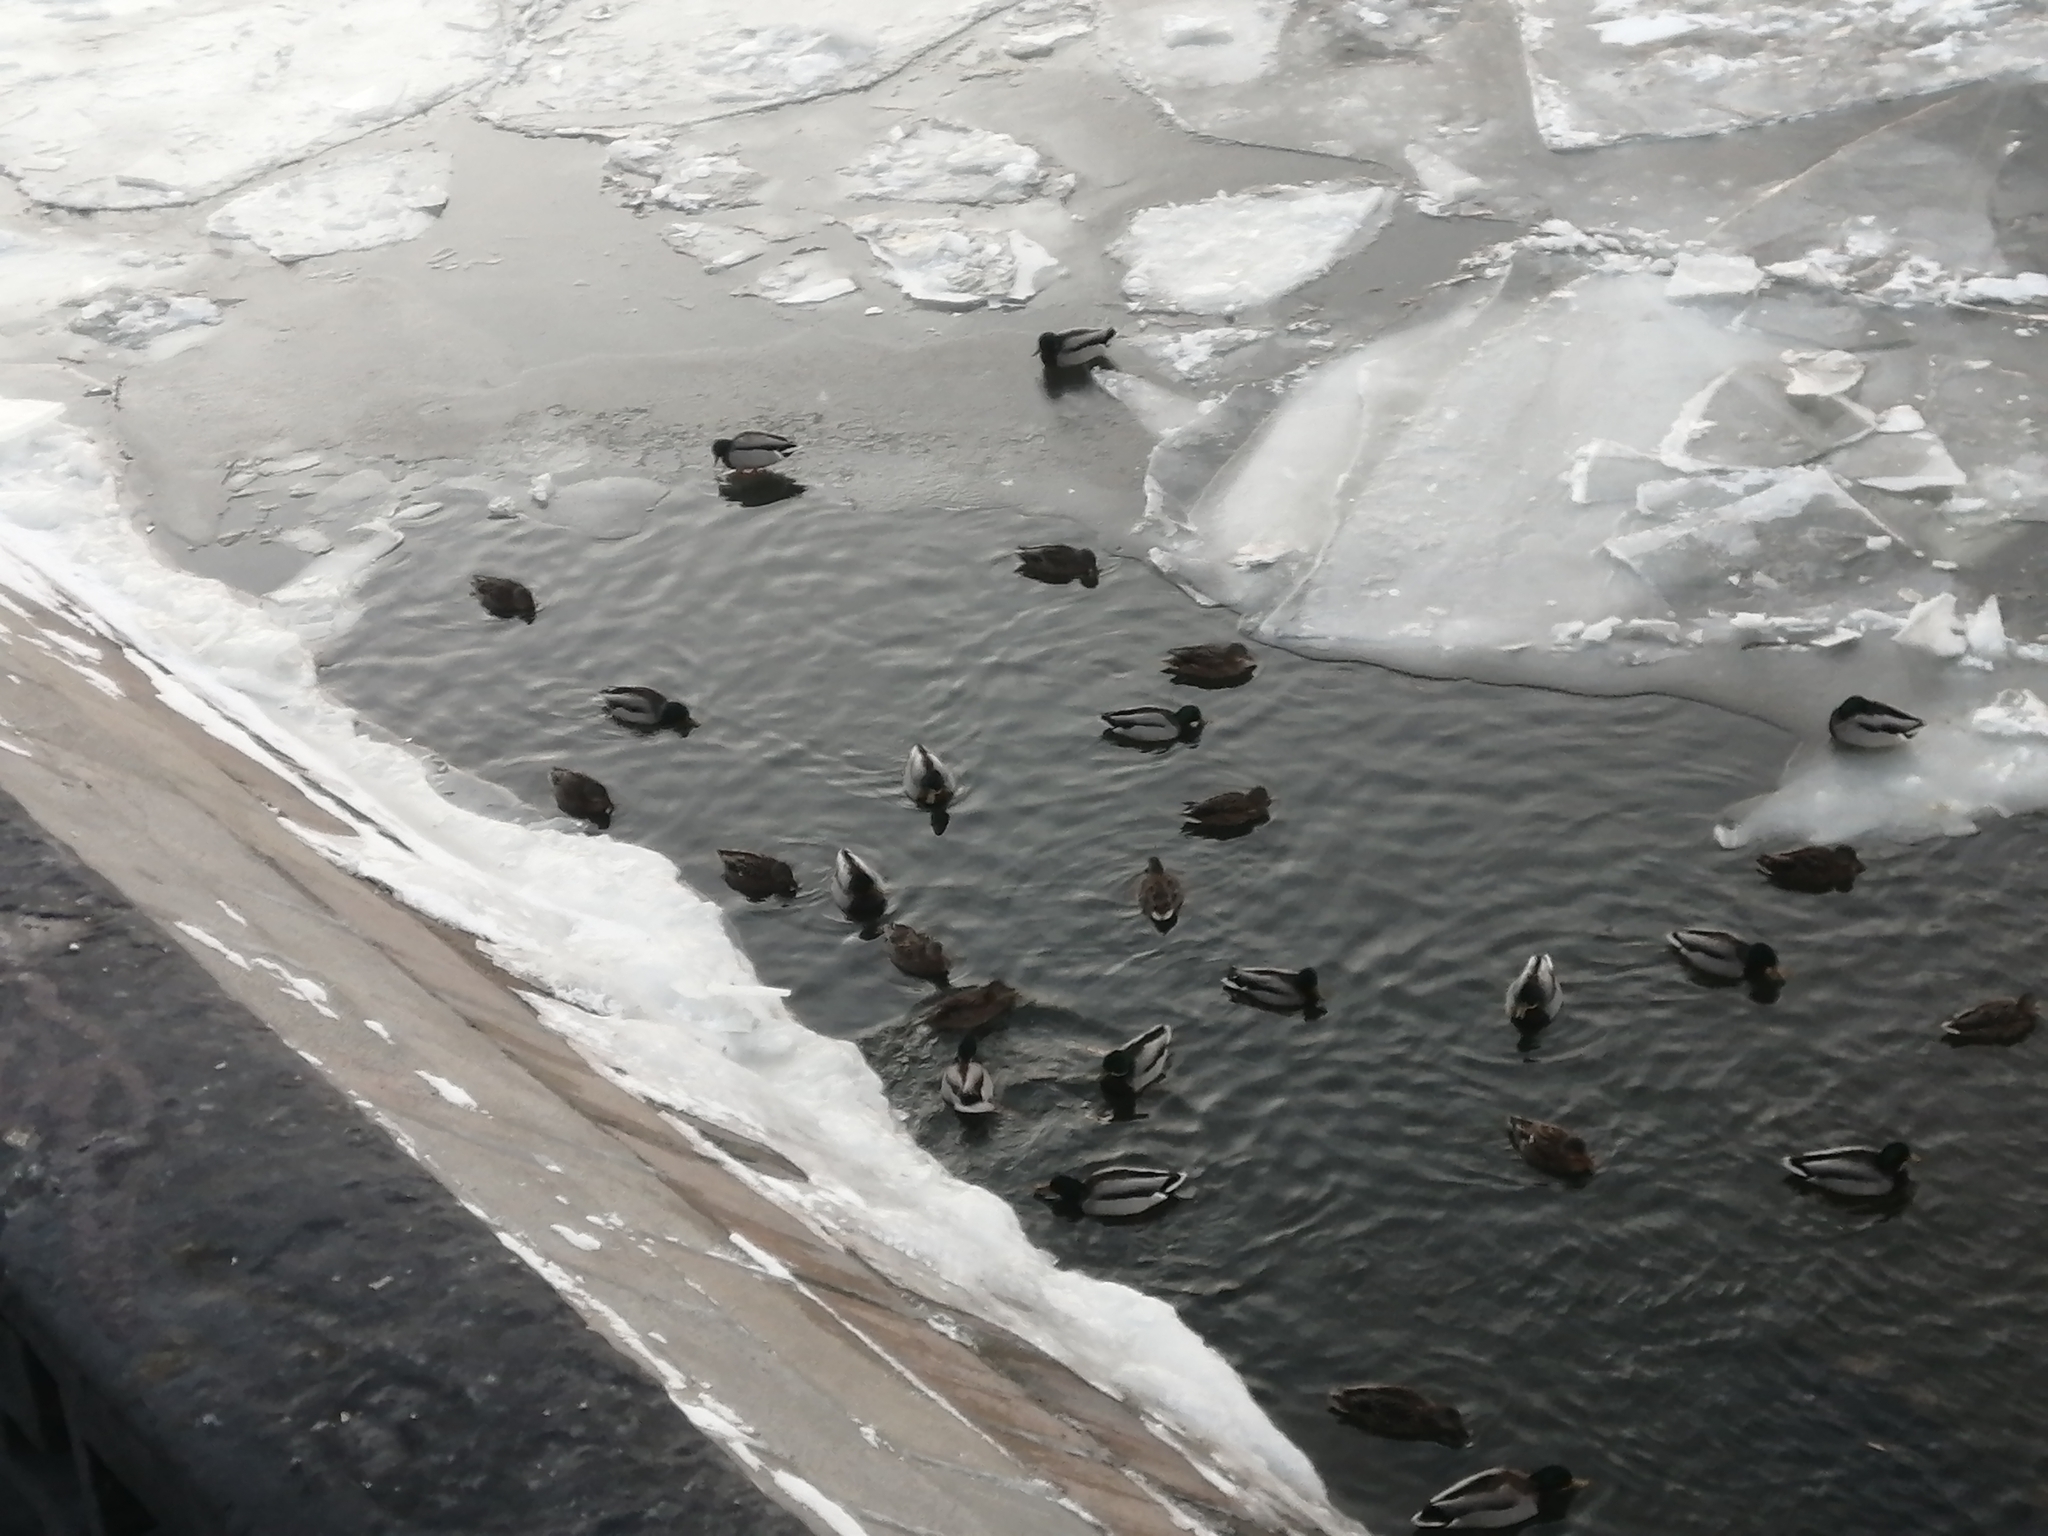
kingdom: Animalia
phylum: Chordata
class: Aves
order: Anseriformes
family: Anatidae
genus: Anas
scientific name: Anas platyrhynchos
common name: Mallard
